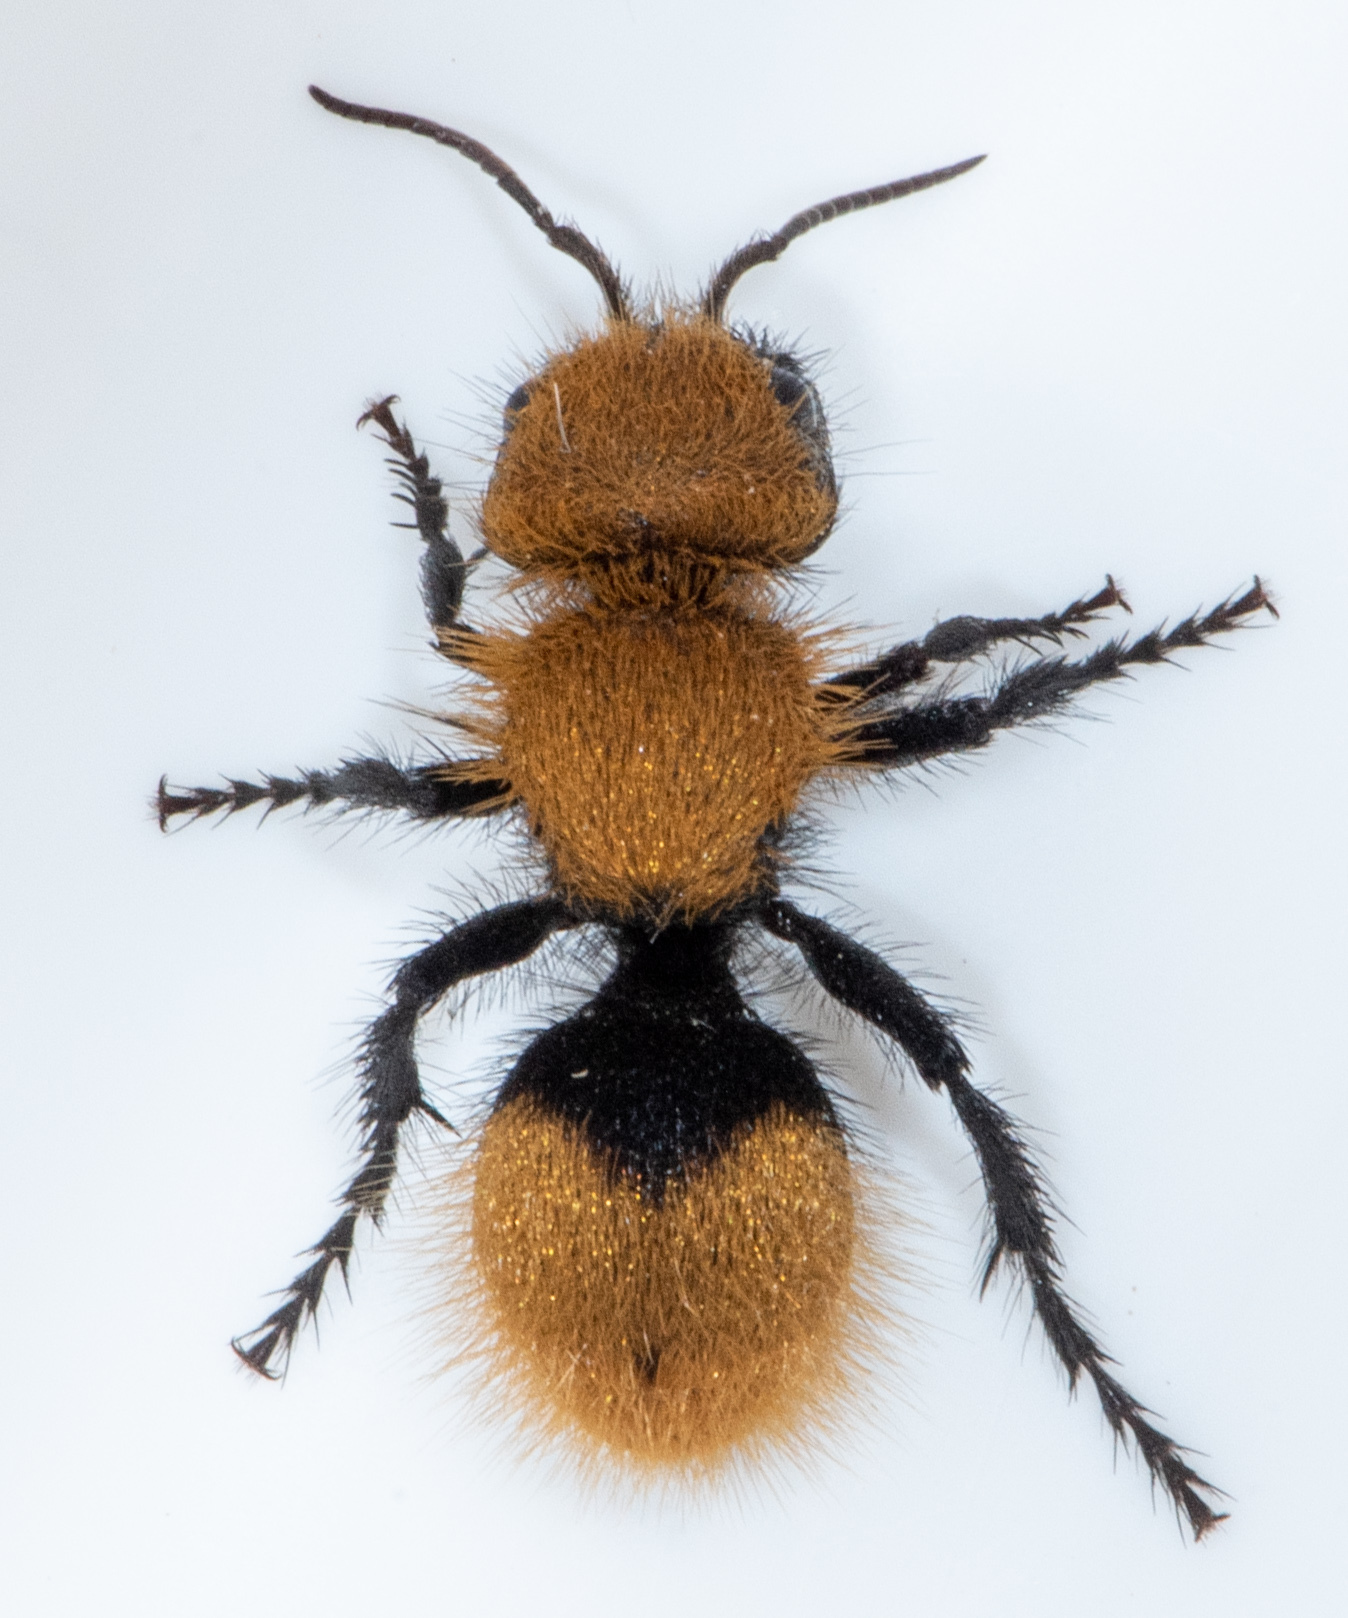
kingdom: Animalia
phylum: Arthropoda
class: Insecta
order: Hymenoptera
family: Mutillidae
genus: Dasymutilla
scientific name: Dasymutilla
